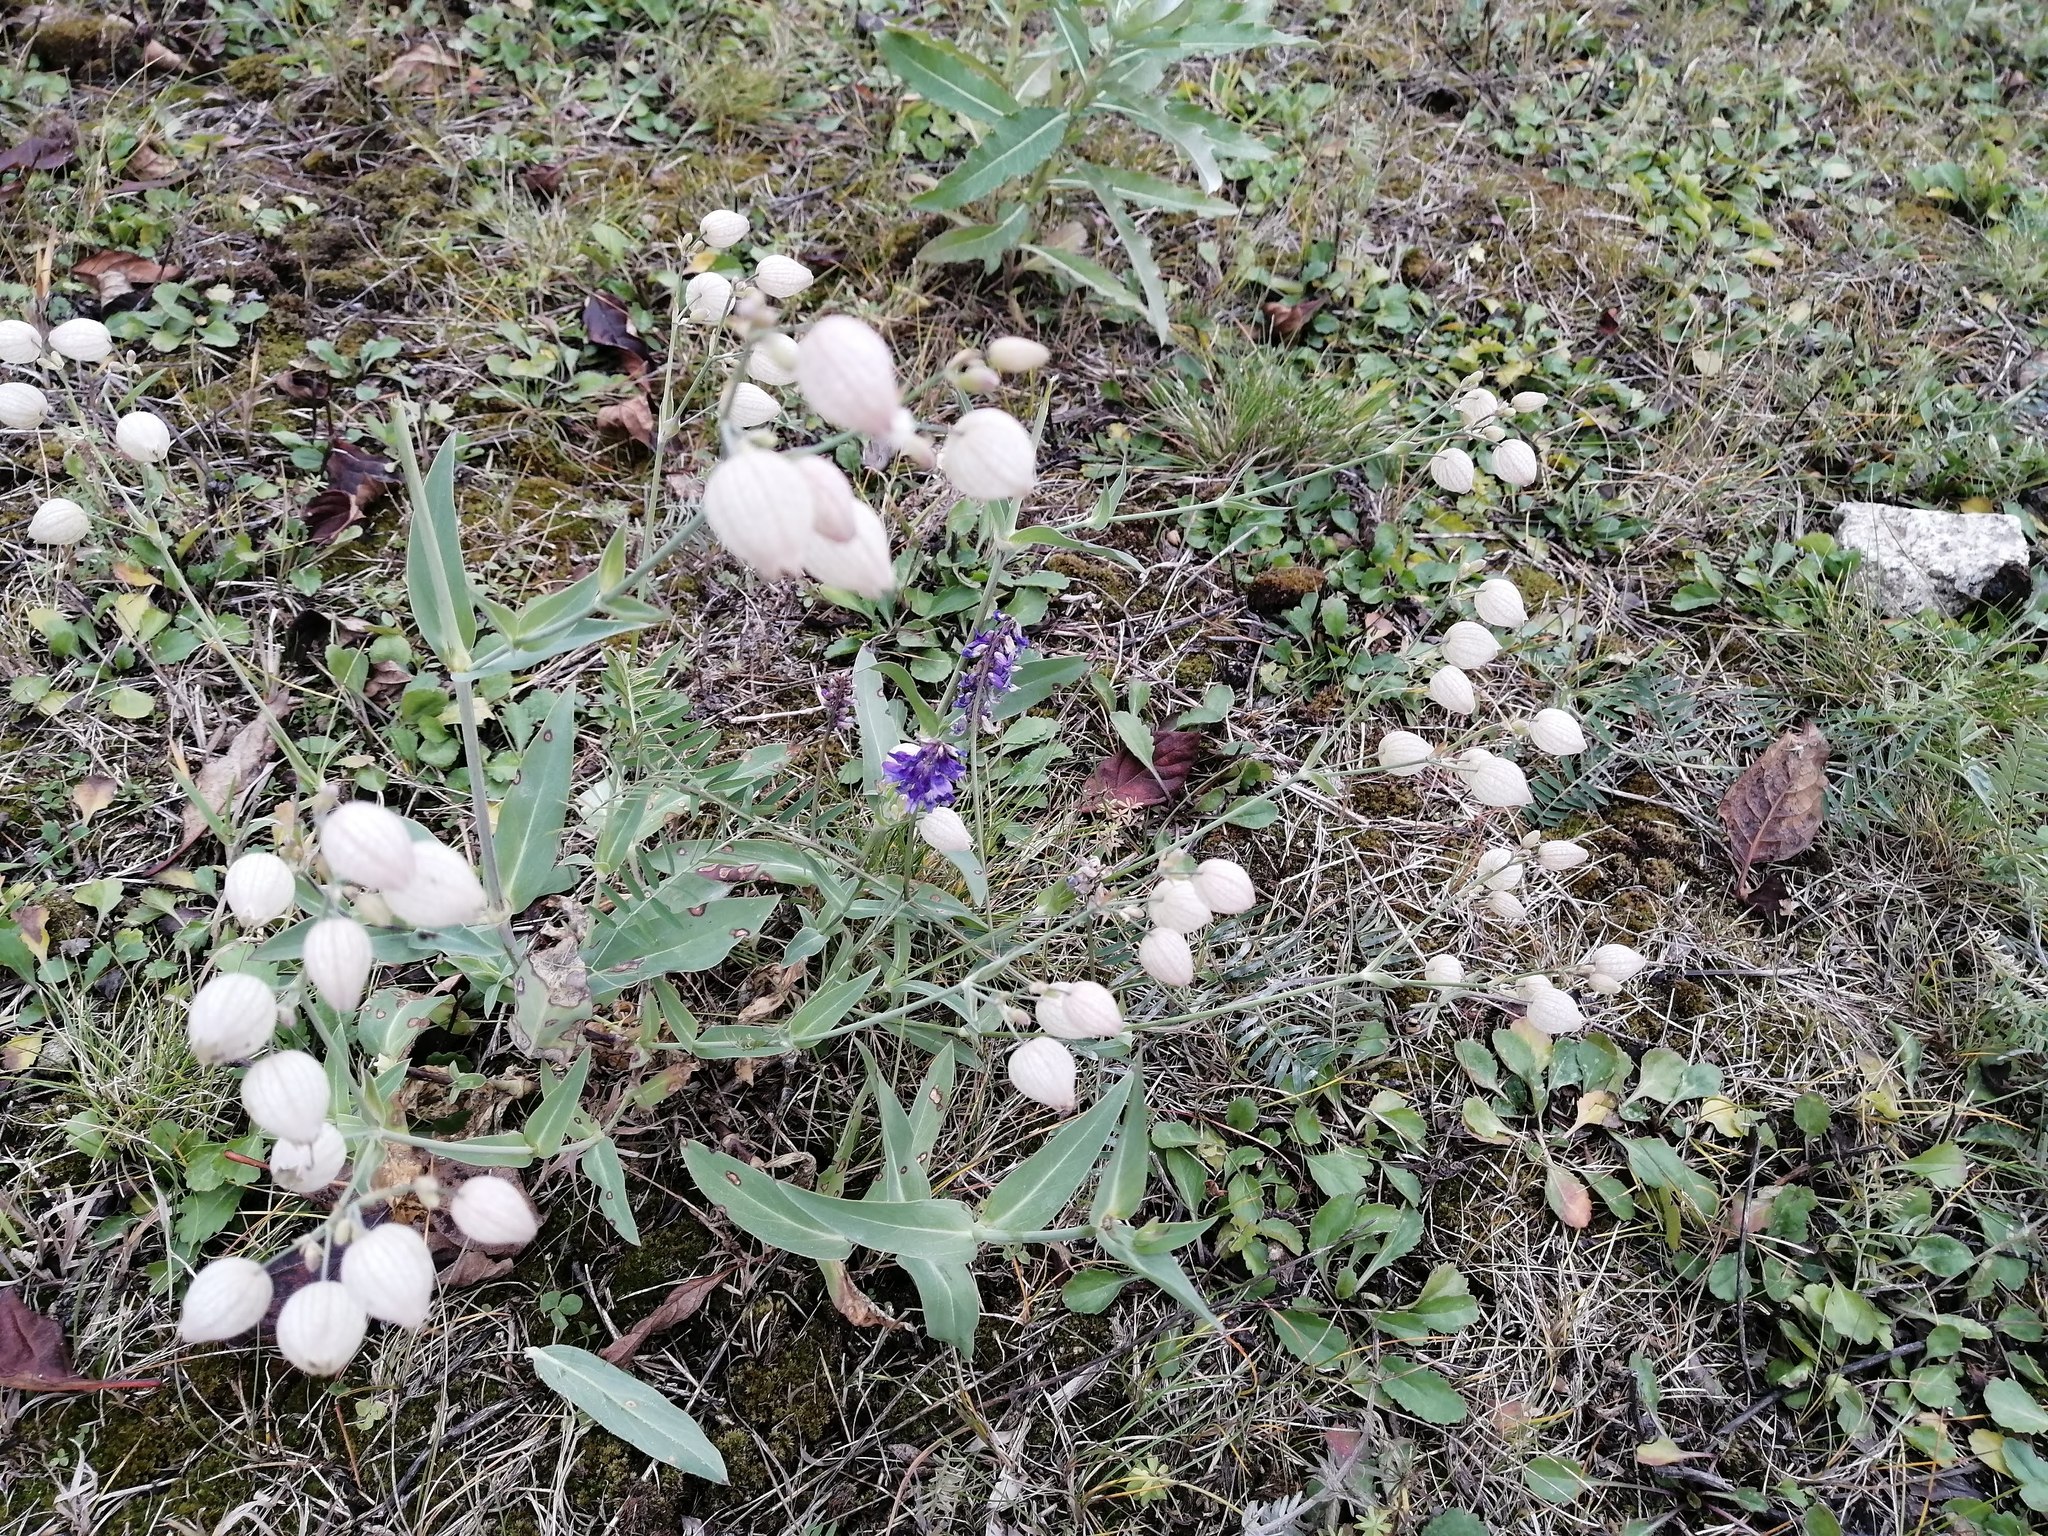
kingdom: Plantae
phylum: Tracheophyta
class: Magnoliopsida
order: Caryophyllales
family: Caryophyllaceae
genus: Silene
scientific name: Silene vulgaris
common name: Bladder campion
